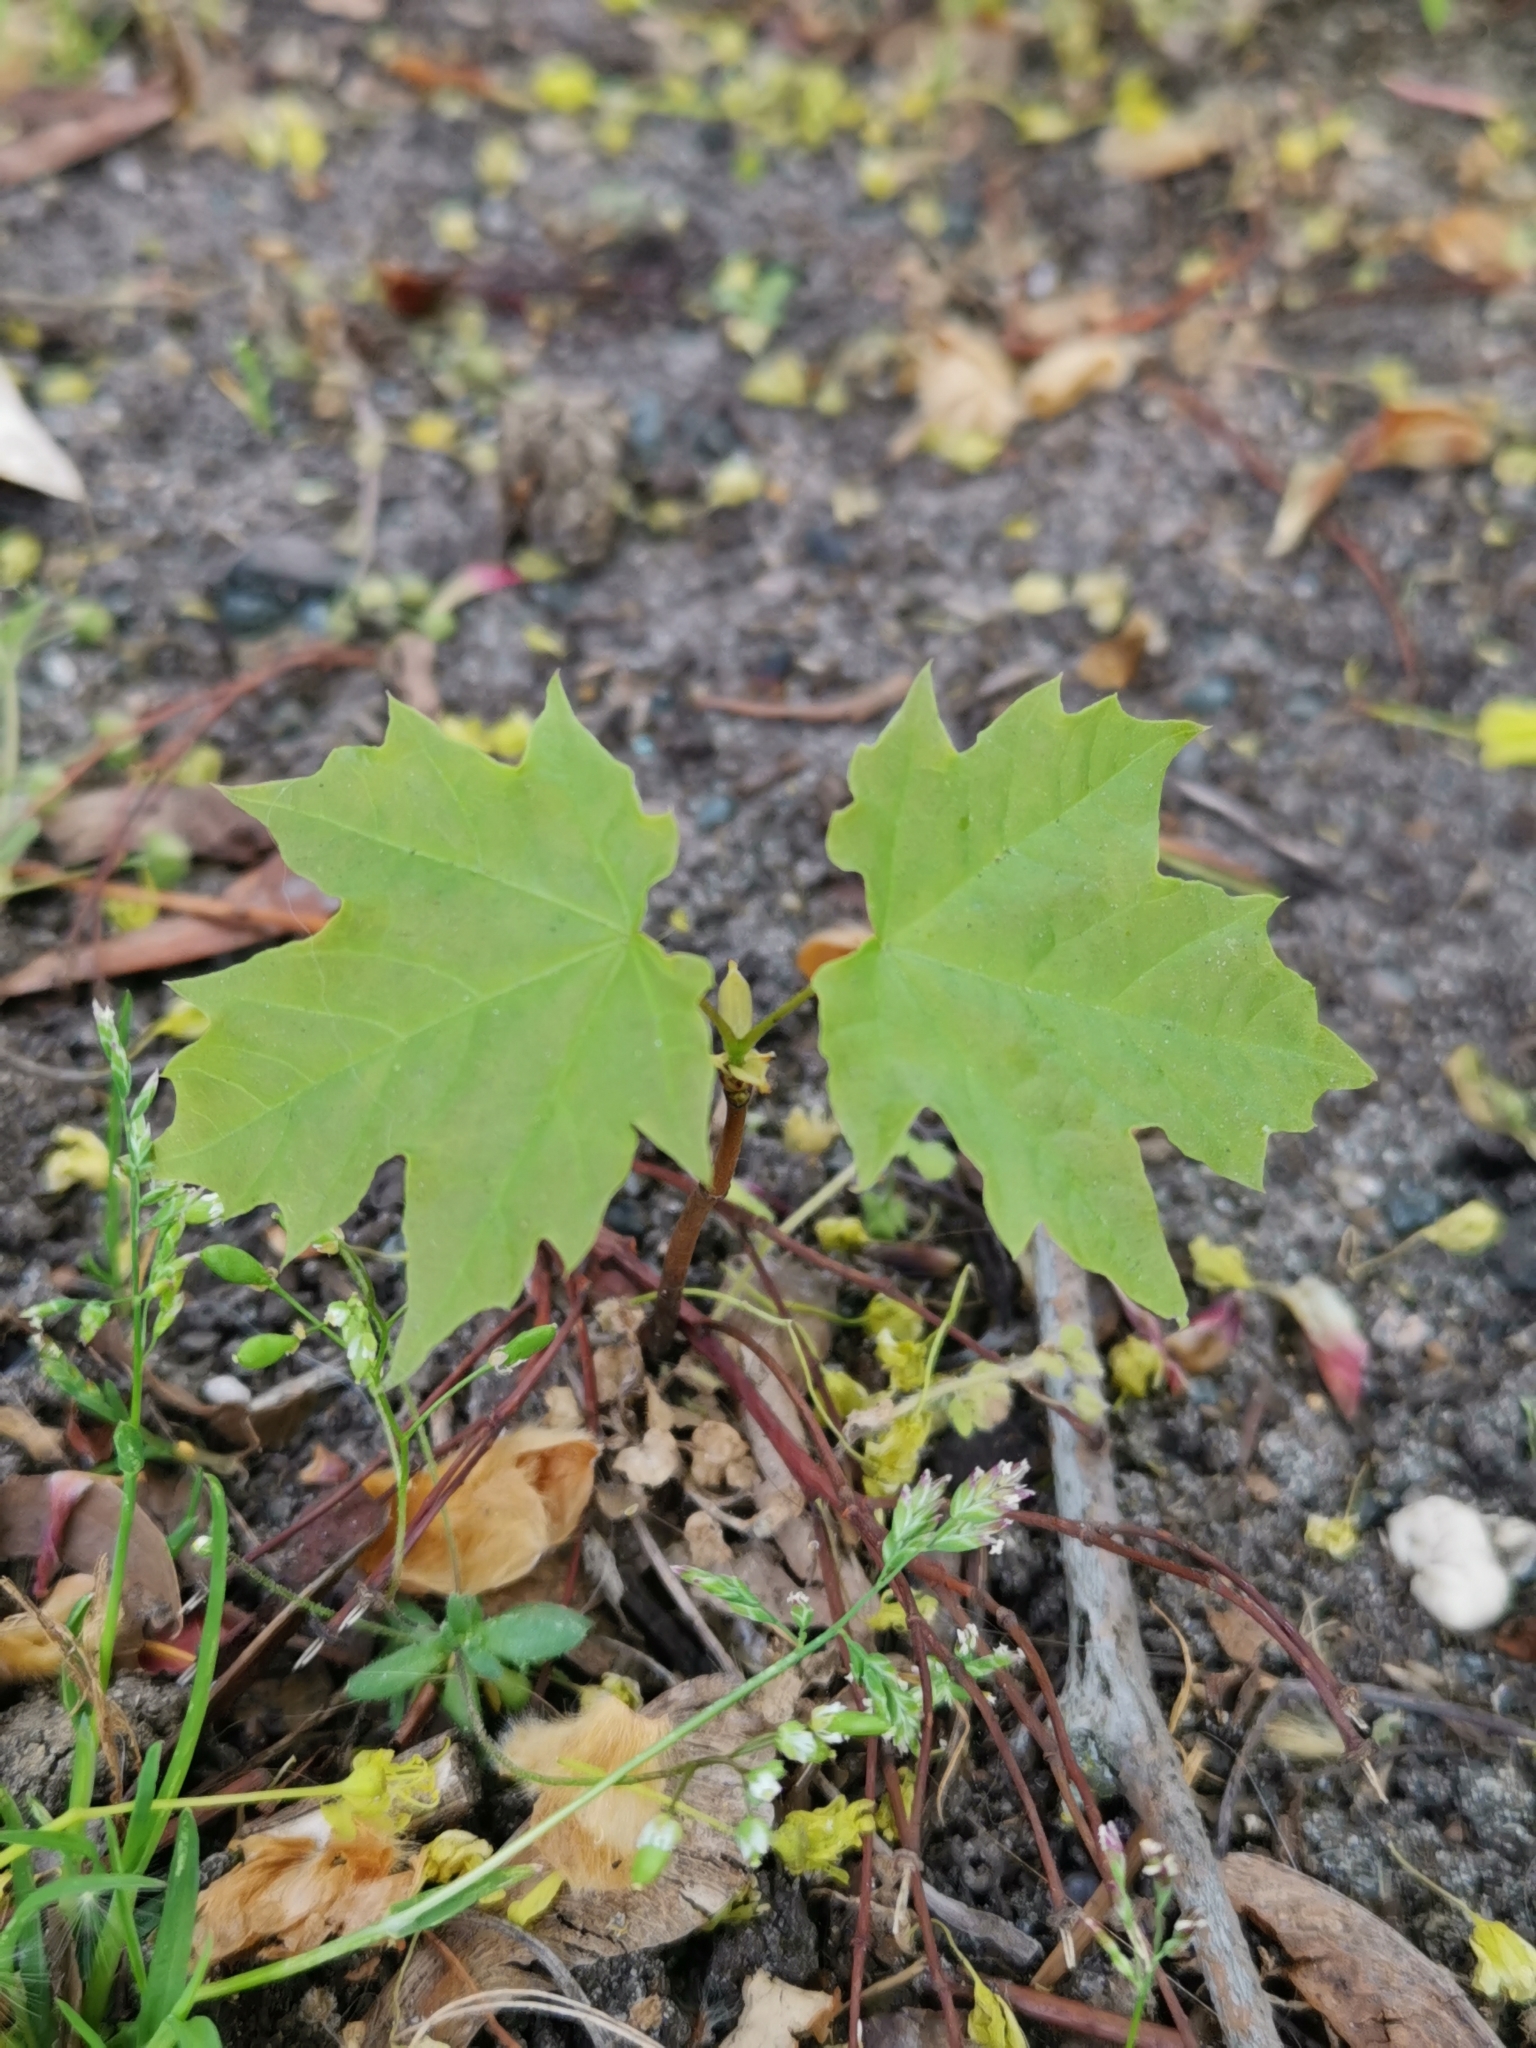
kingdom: Plantae
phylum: Tracheophyta
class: Magnoliopsida
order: Sapindales
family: Sapindaceae
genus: Acer
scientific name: Acer platanoides
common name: Norway maple
